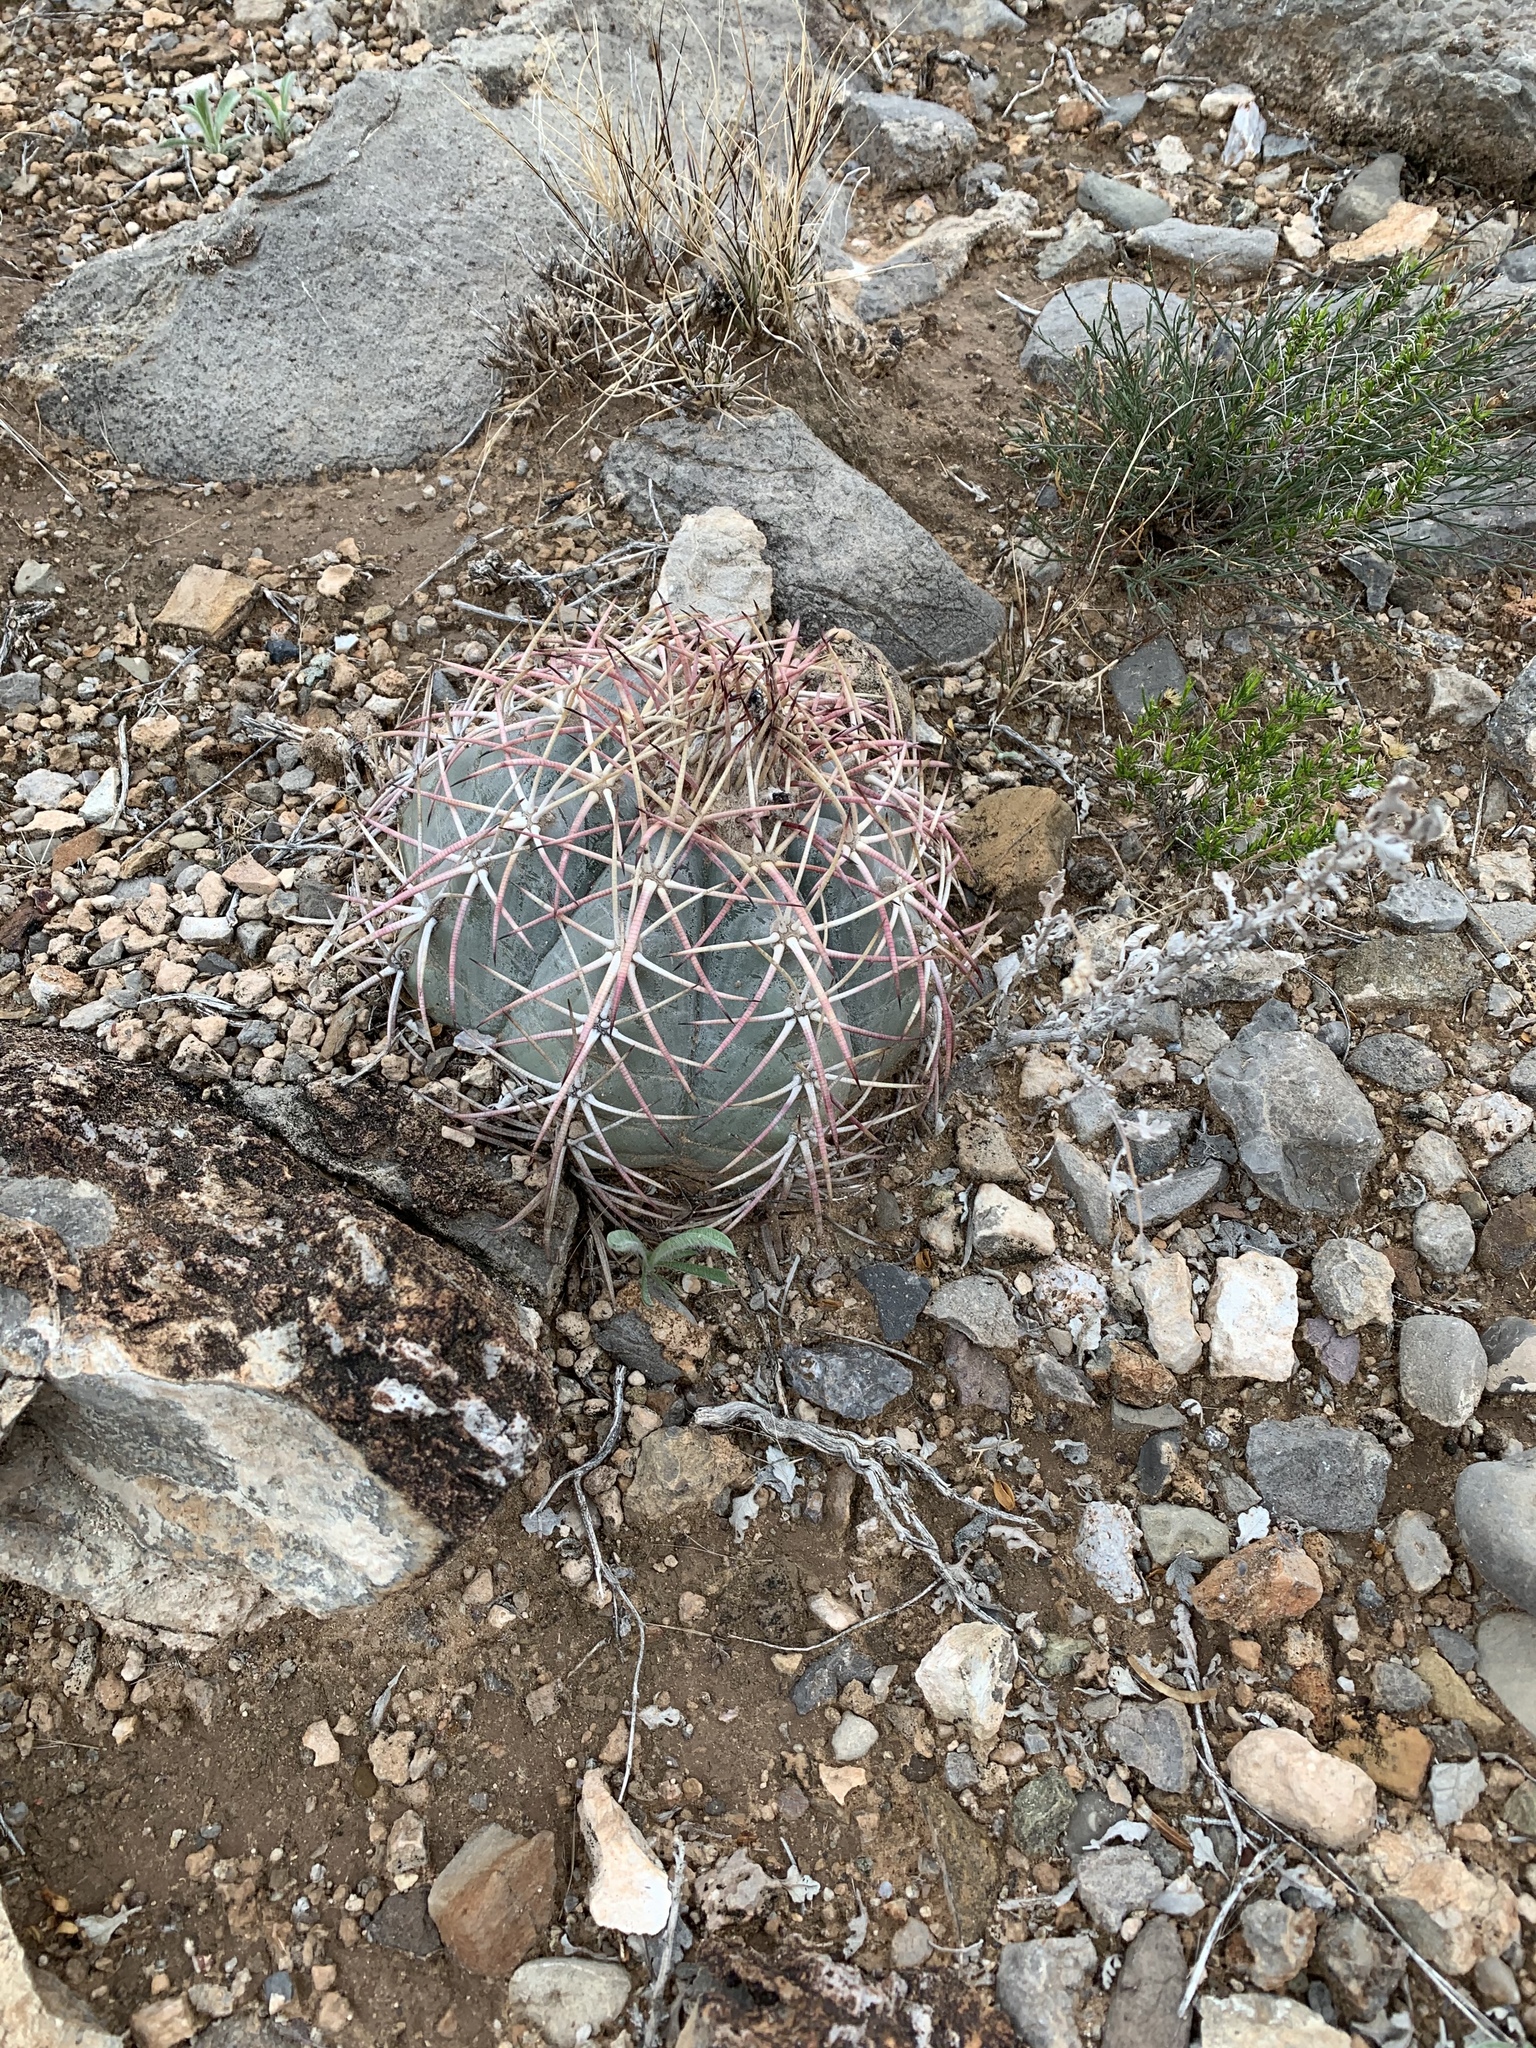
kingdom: Plantae
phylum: Tracheophyta
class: Magnoliopsida
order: Caryophyllales
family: Cactaceae
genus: Echinocactus
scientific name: Echinocactus horizonthalonius
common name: Devilshead
